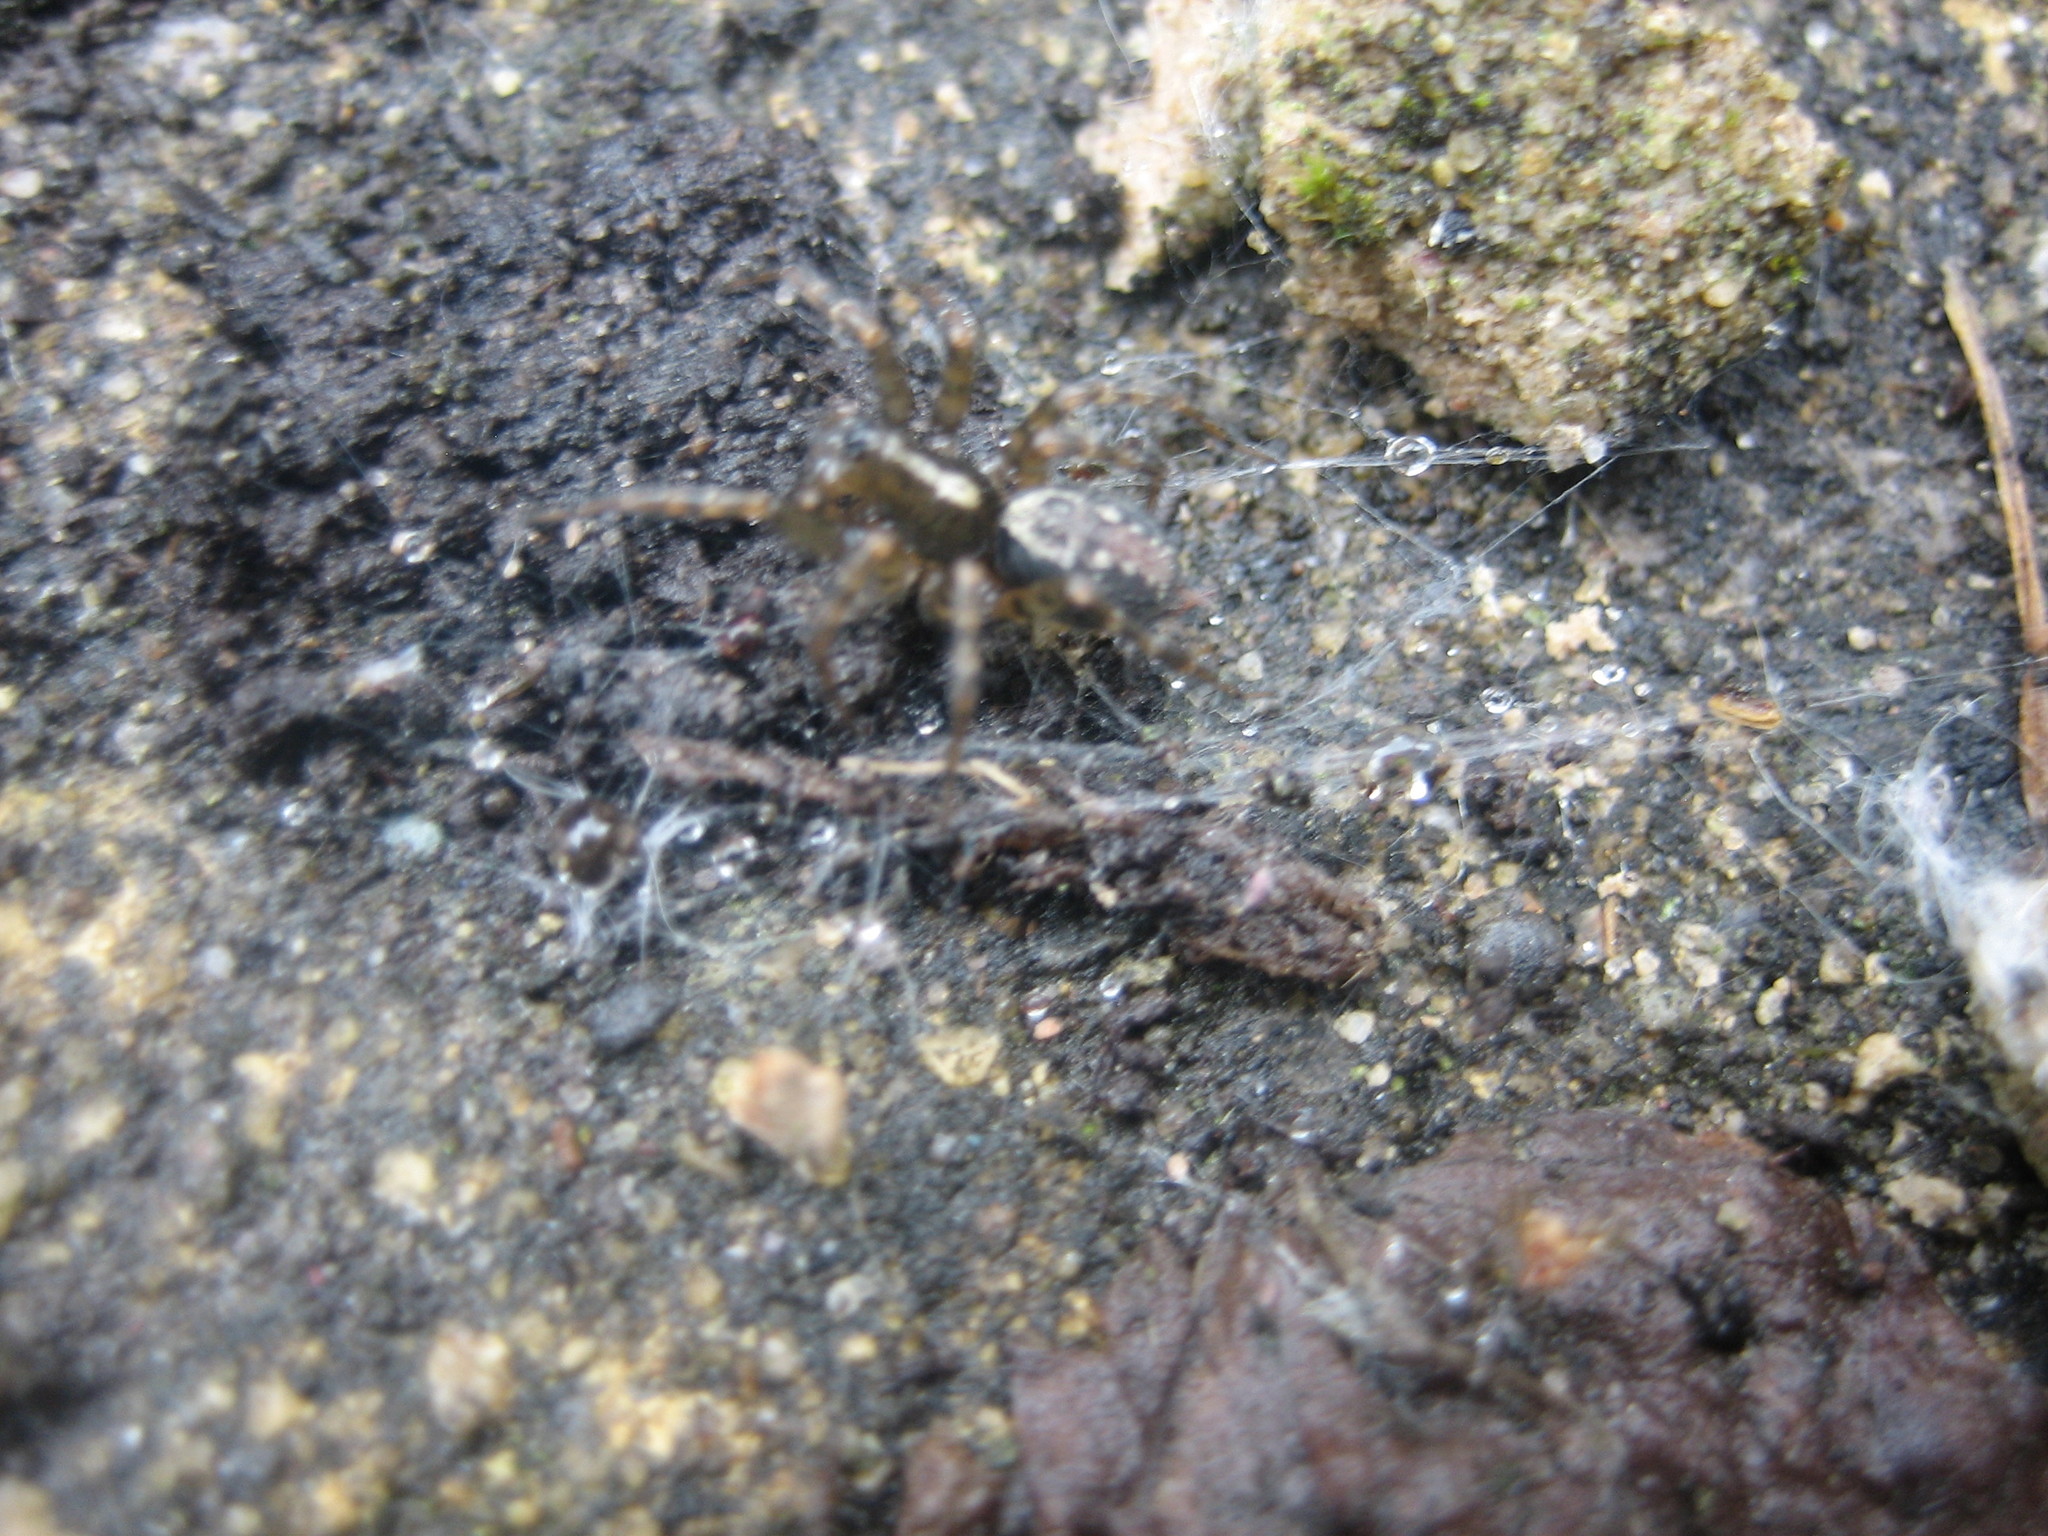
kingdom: Animalia
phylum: Arthropoda
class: Arachnida
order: Araneae
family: Agelenidae
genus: Textrix
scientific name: Textrix denticulata
